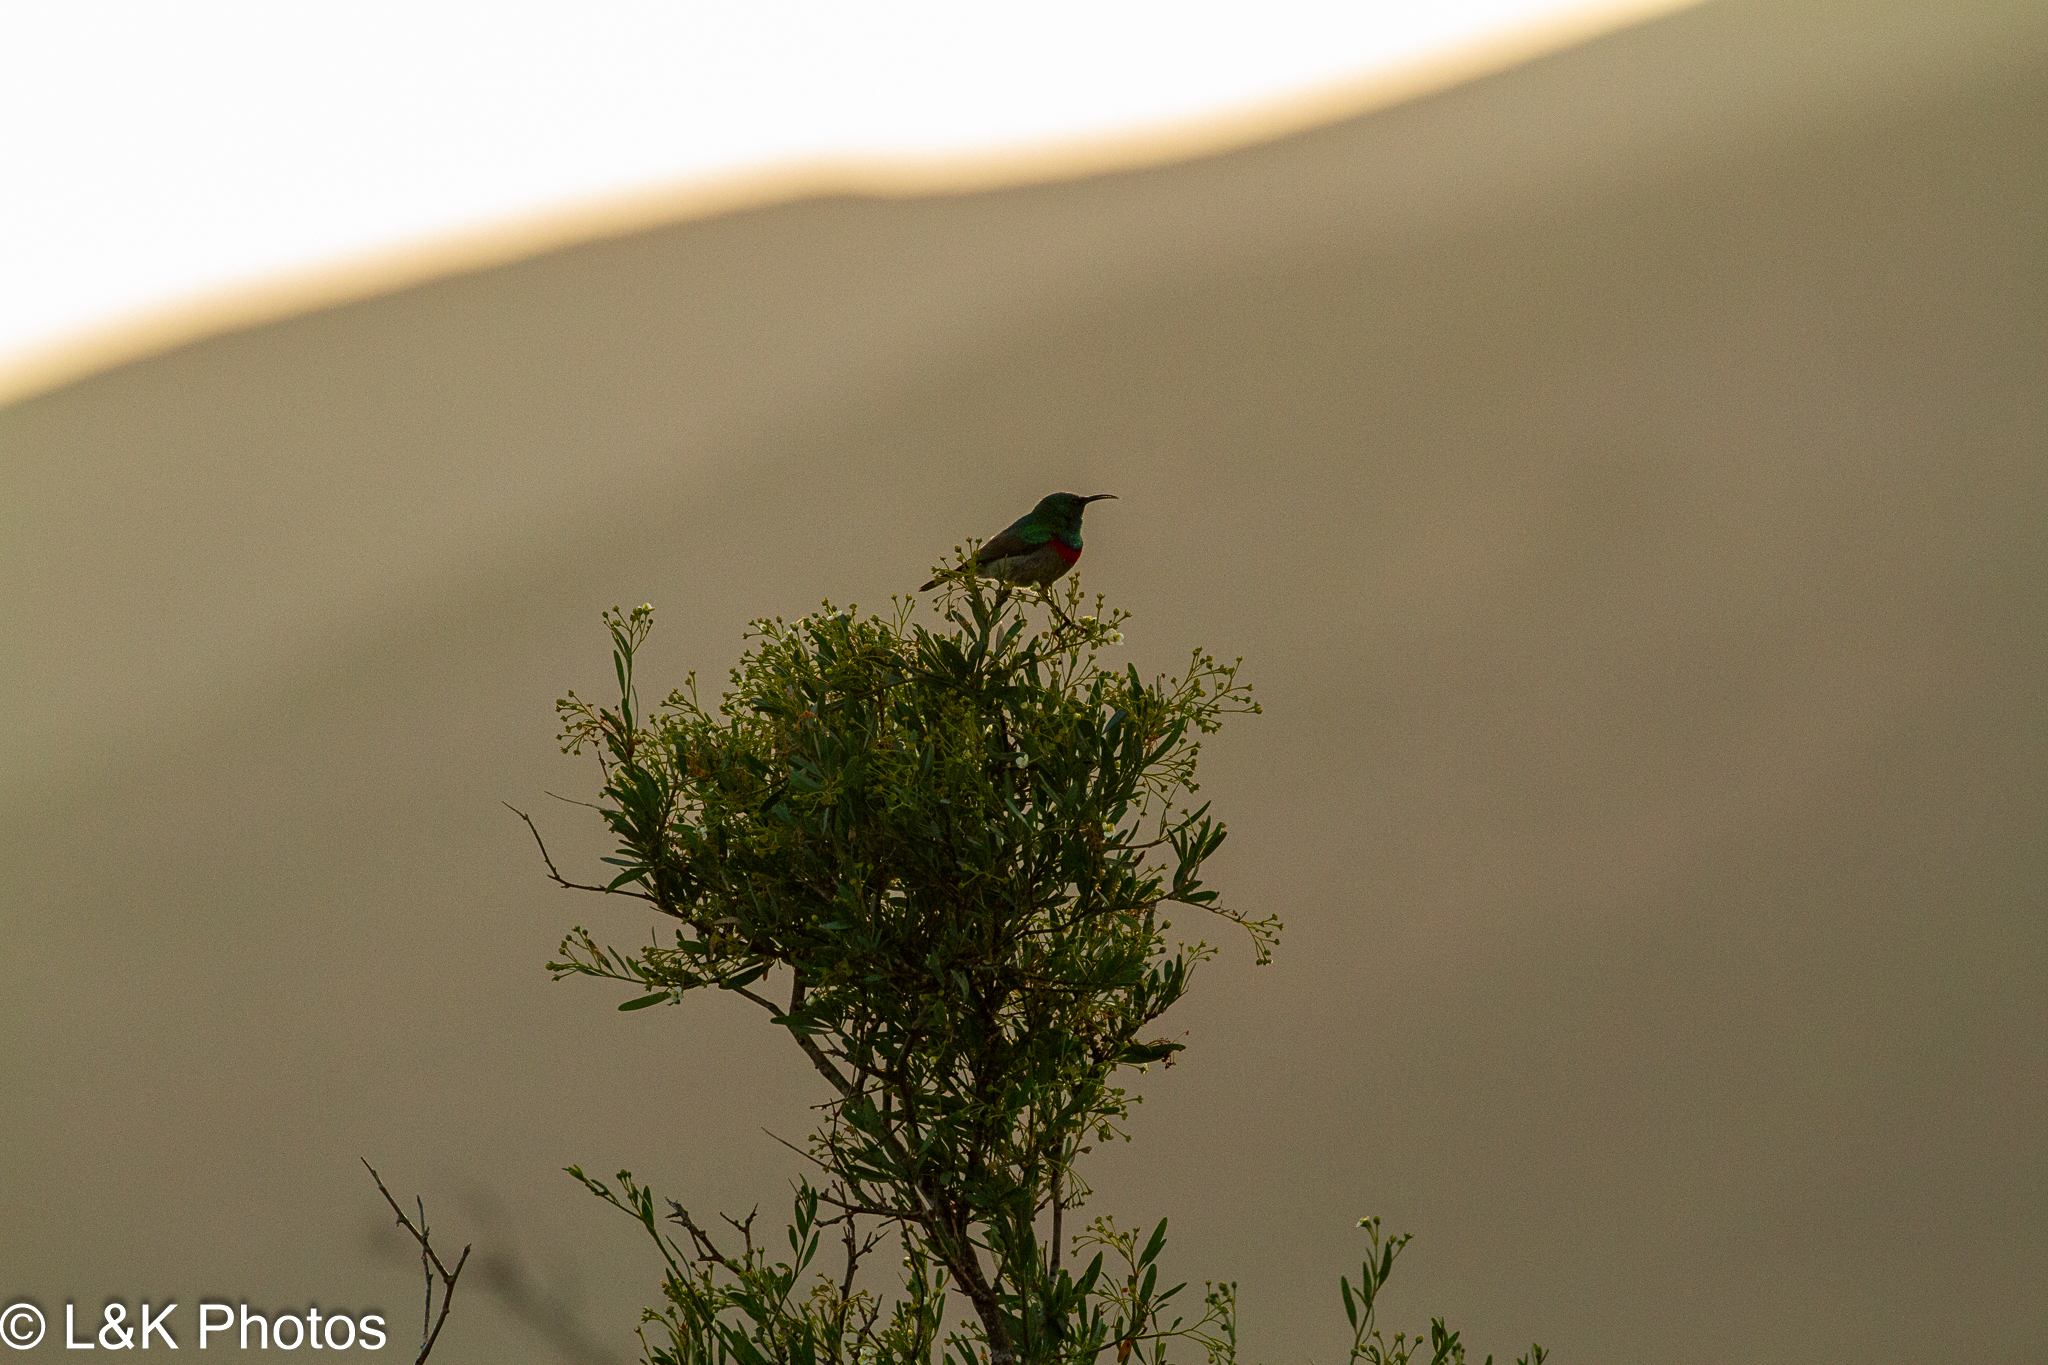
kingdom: Animalia
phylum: Chordata
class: Aves
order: Passeriformes
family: Nectariniidae
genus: Cinnyris
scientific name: Cinnyris chalybeus
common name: Southern double-collared sunbird
